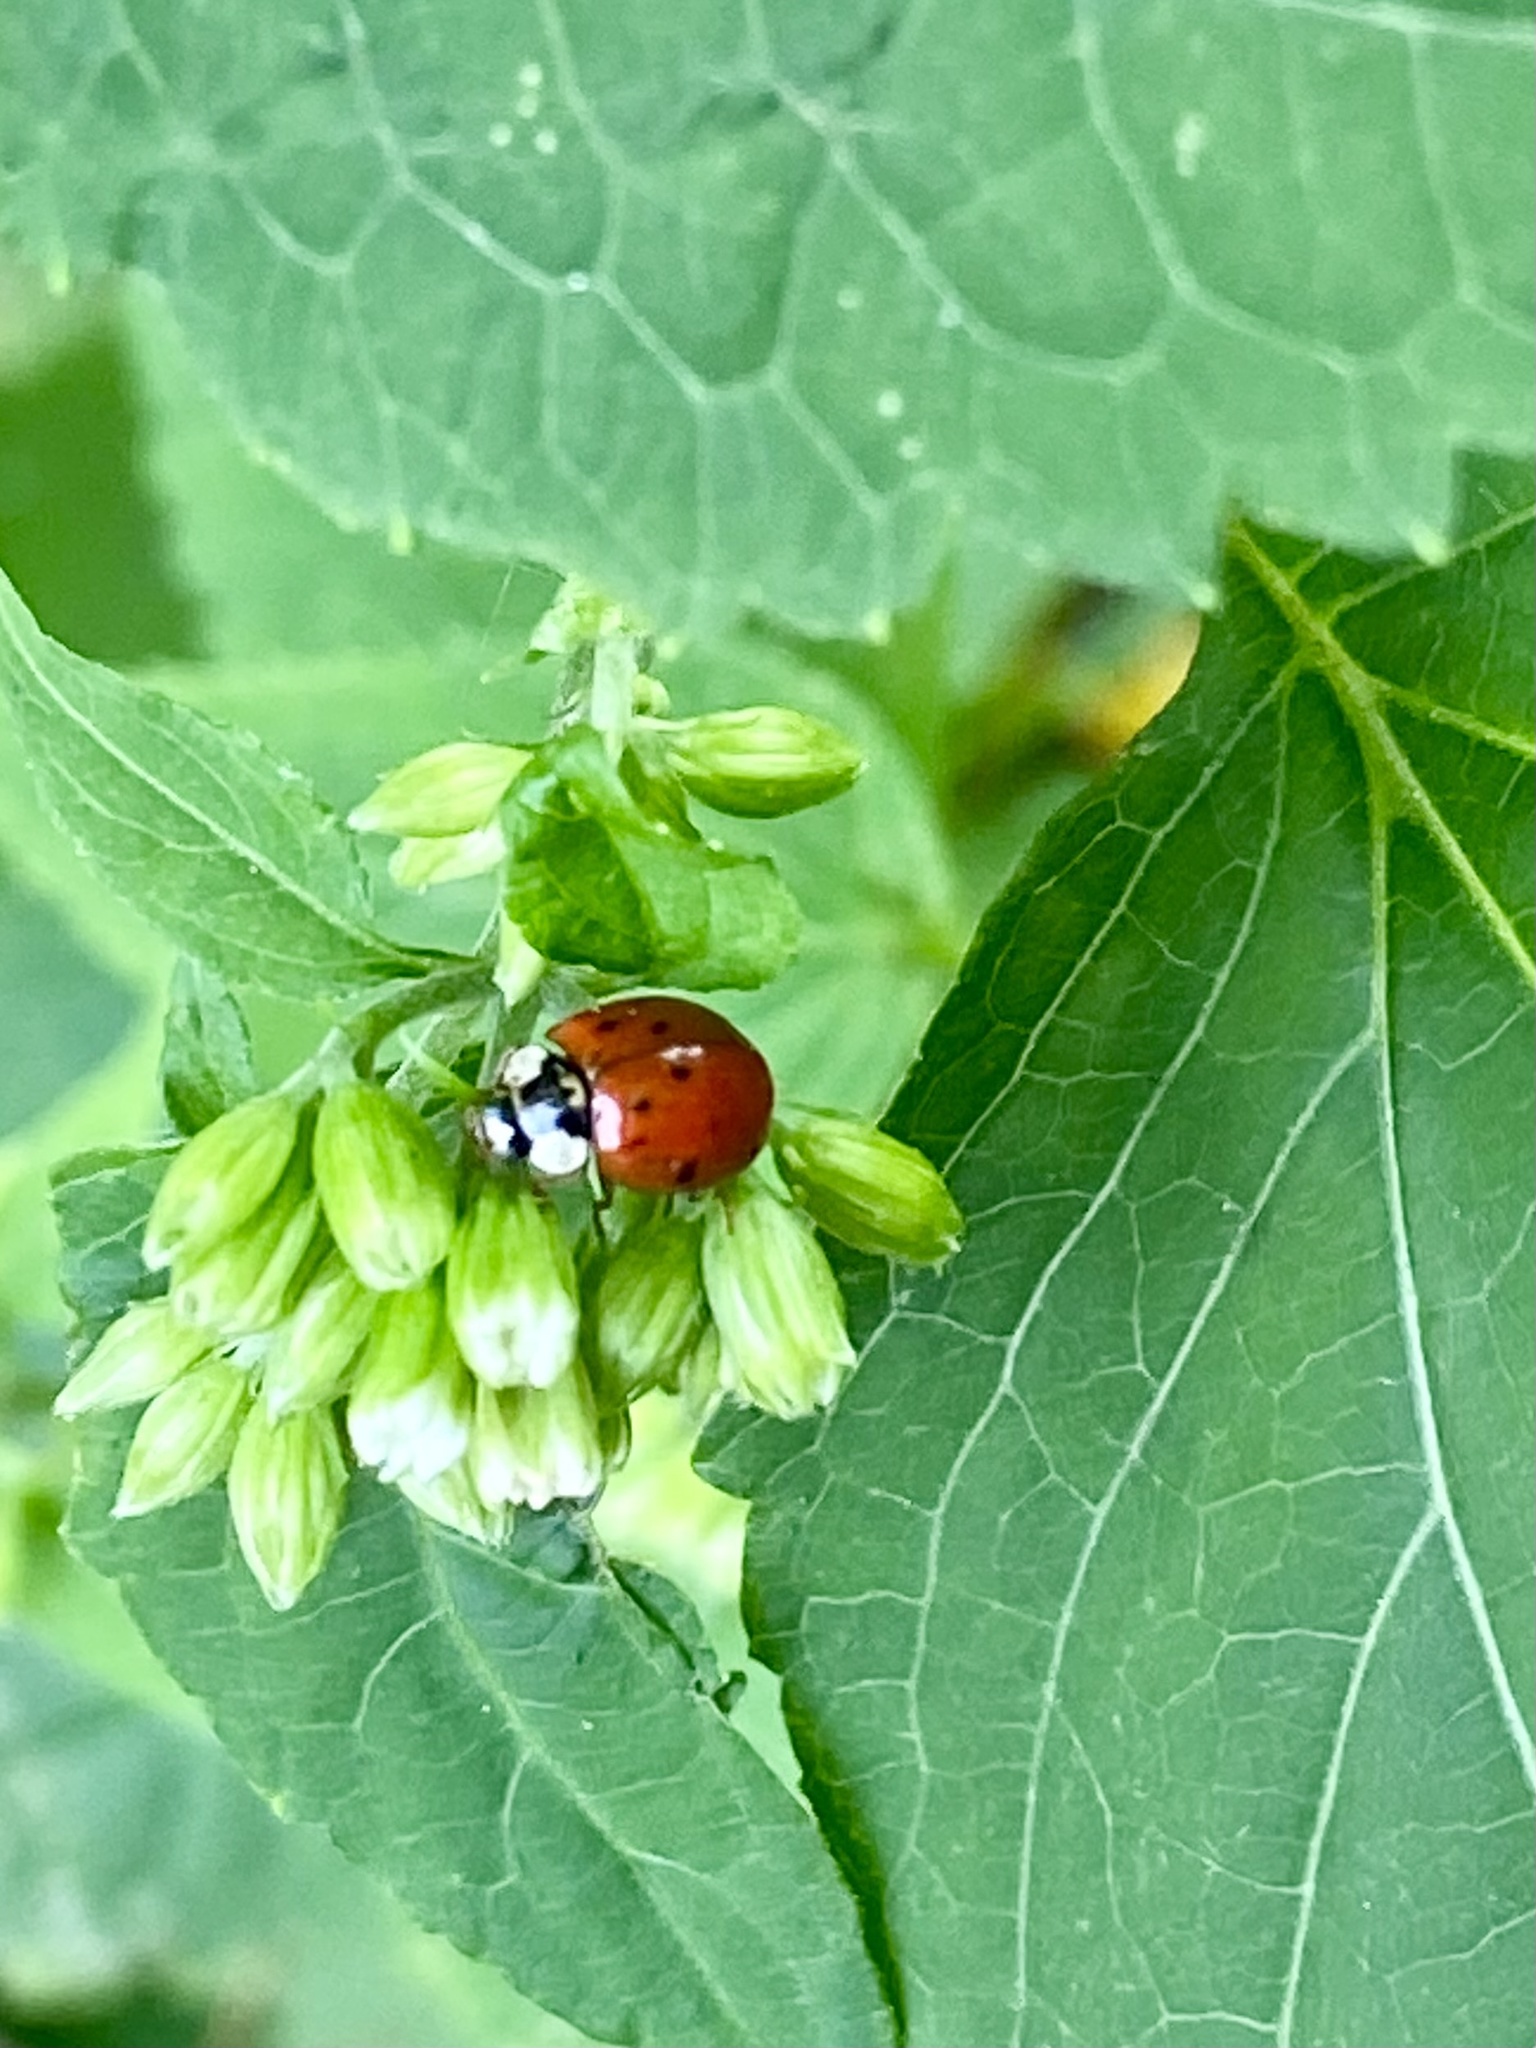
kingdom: Animalia
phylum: Arthropoda
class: Insecta
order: Coleoptera
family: Coccinellidae
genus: Harmonia
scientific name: Harmonia axyridis
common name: Harlequin ladybird
